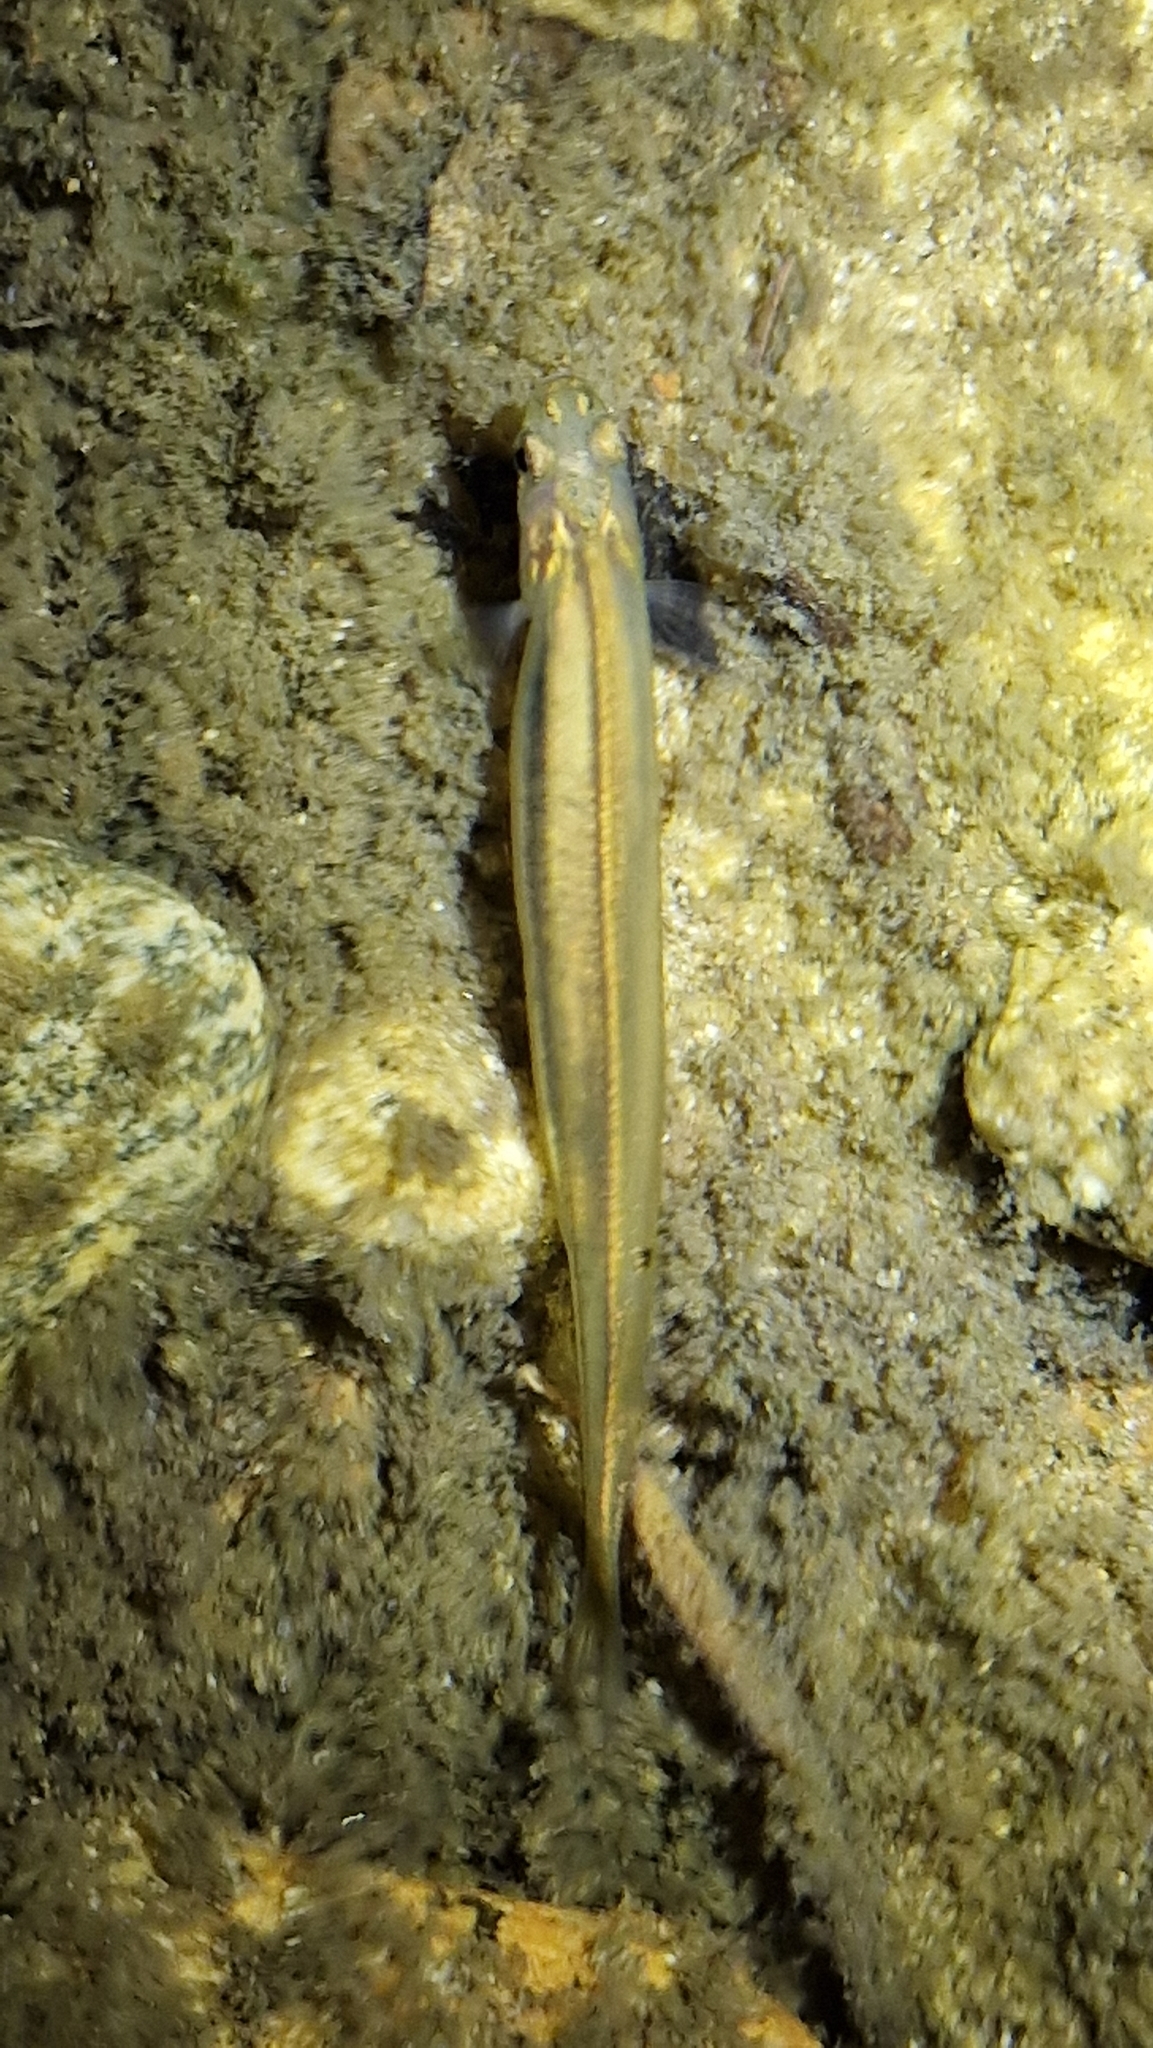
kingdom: Animalia
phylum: Chordata
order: Osmeriformes
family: Galaxiidae
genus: Galaxias
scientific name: Galaxias maculatus
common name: Common galaxias
